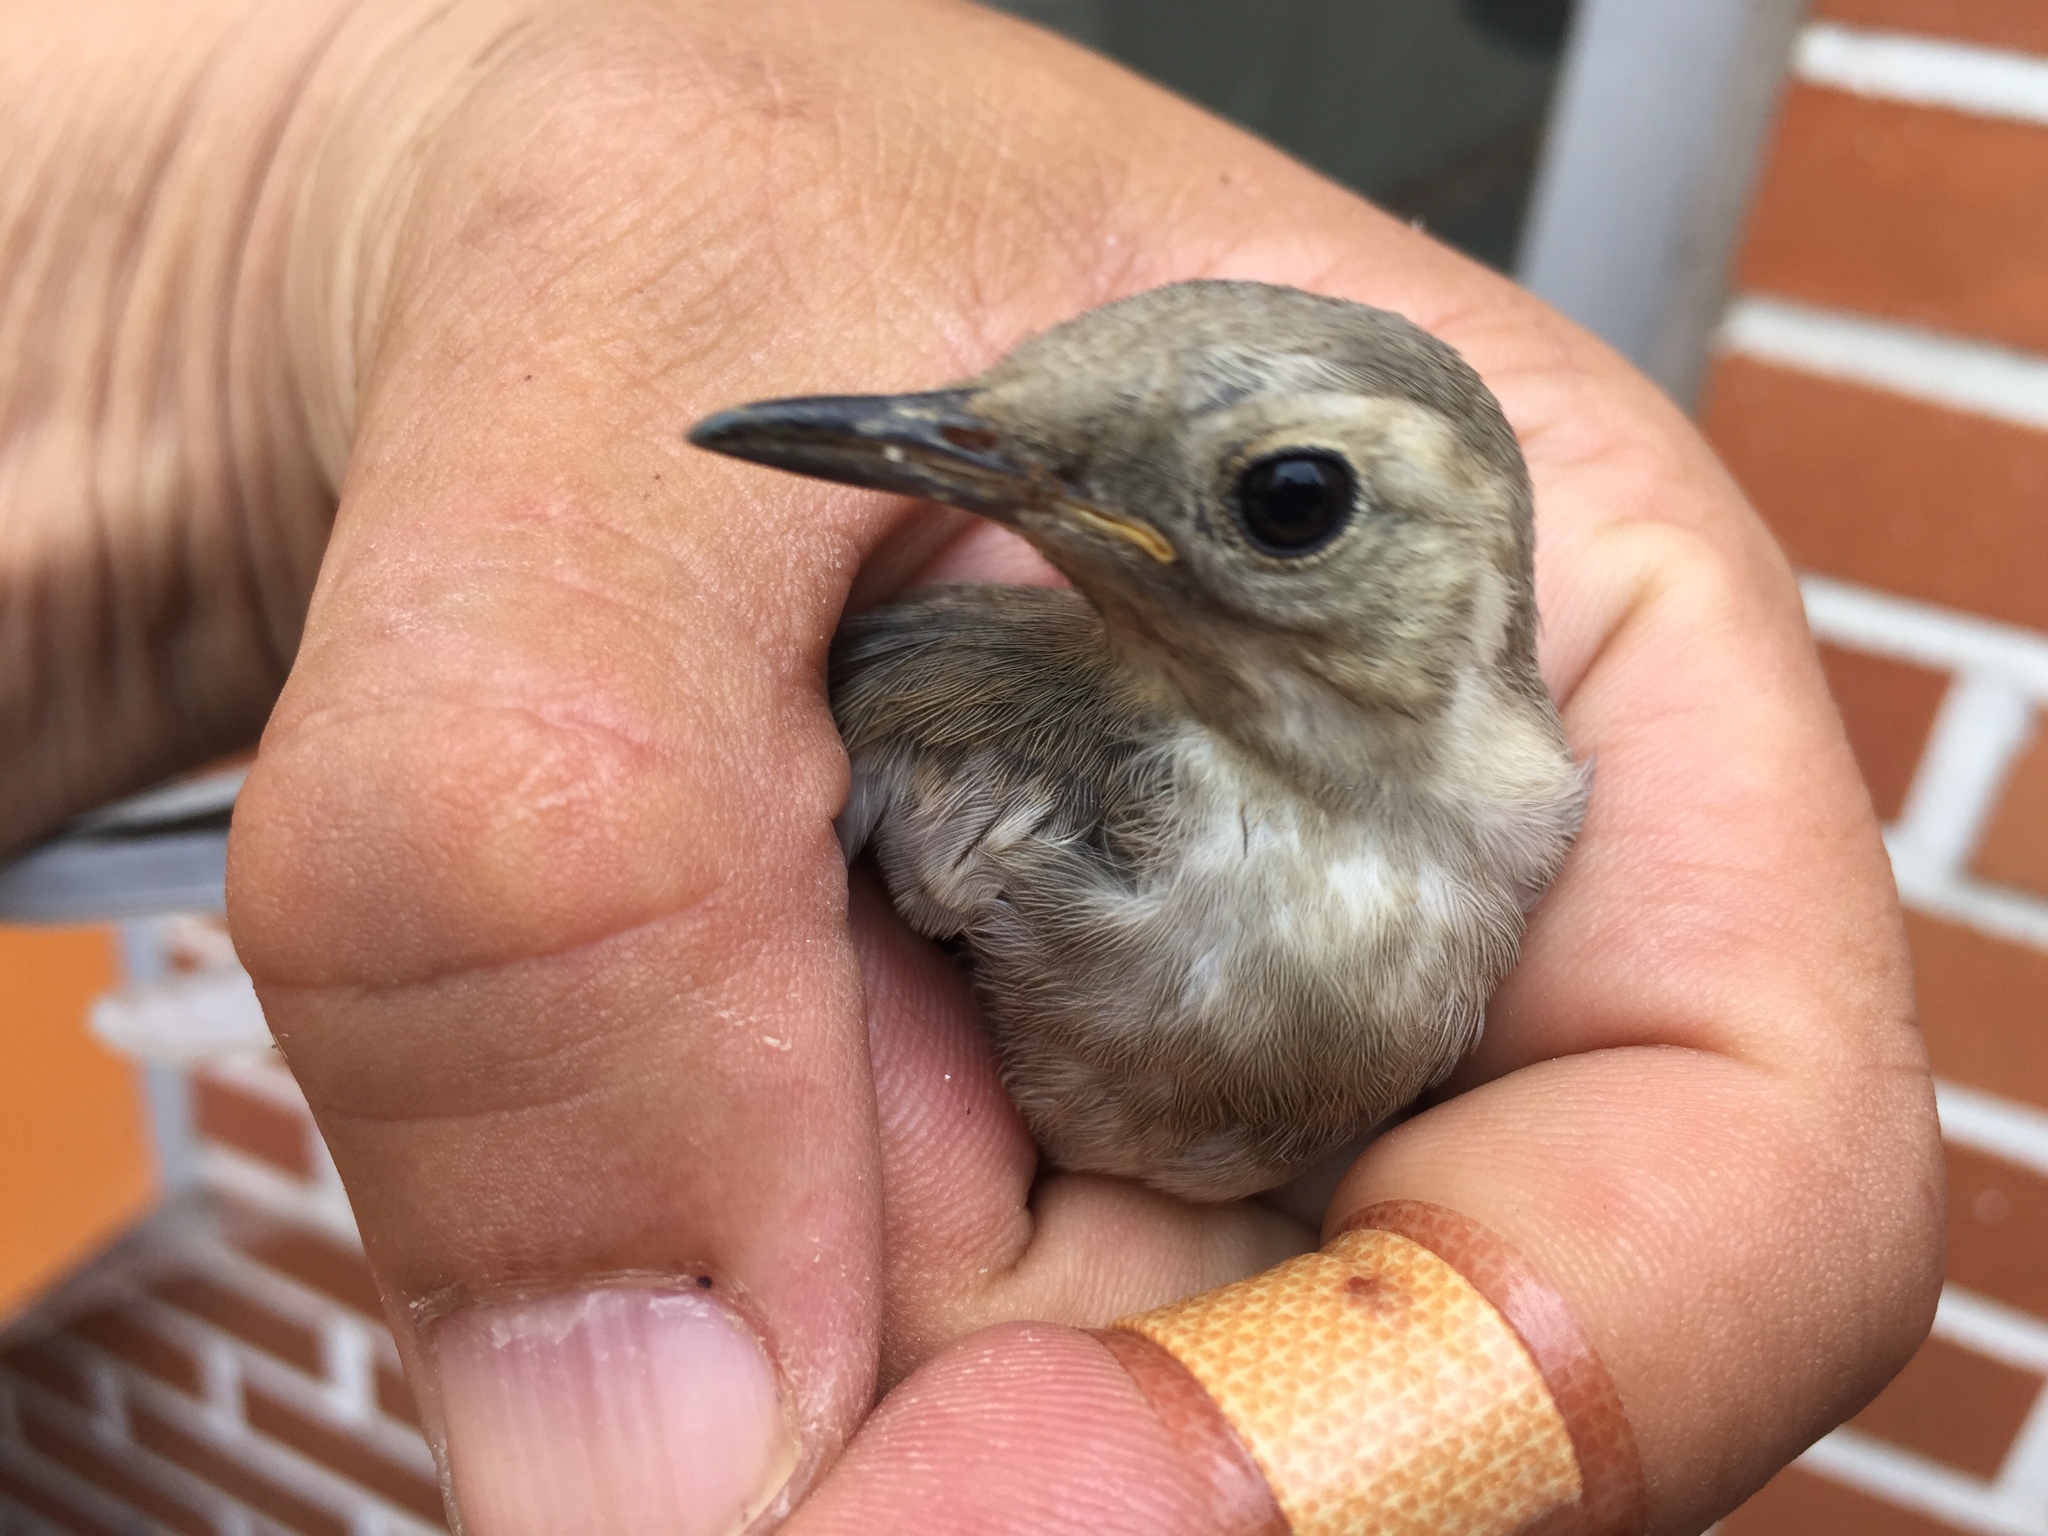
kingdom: Animalia
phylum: Chordata
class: Aves
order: Passeriformes
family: Motacillidae
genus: Motacilla
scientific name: Motacilla alba
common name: White wagtail
